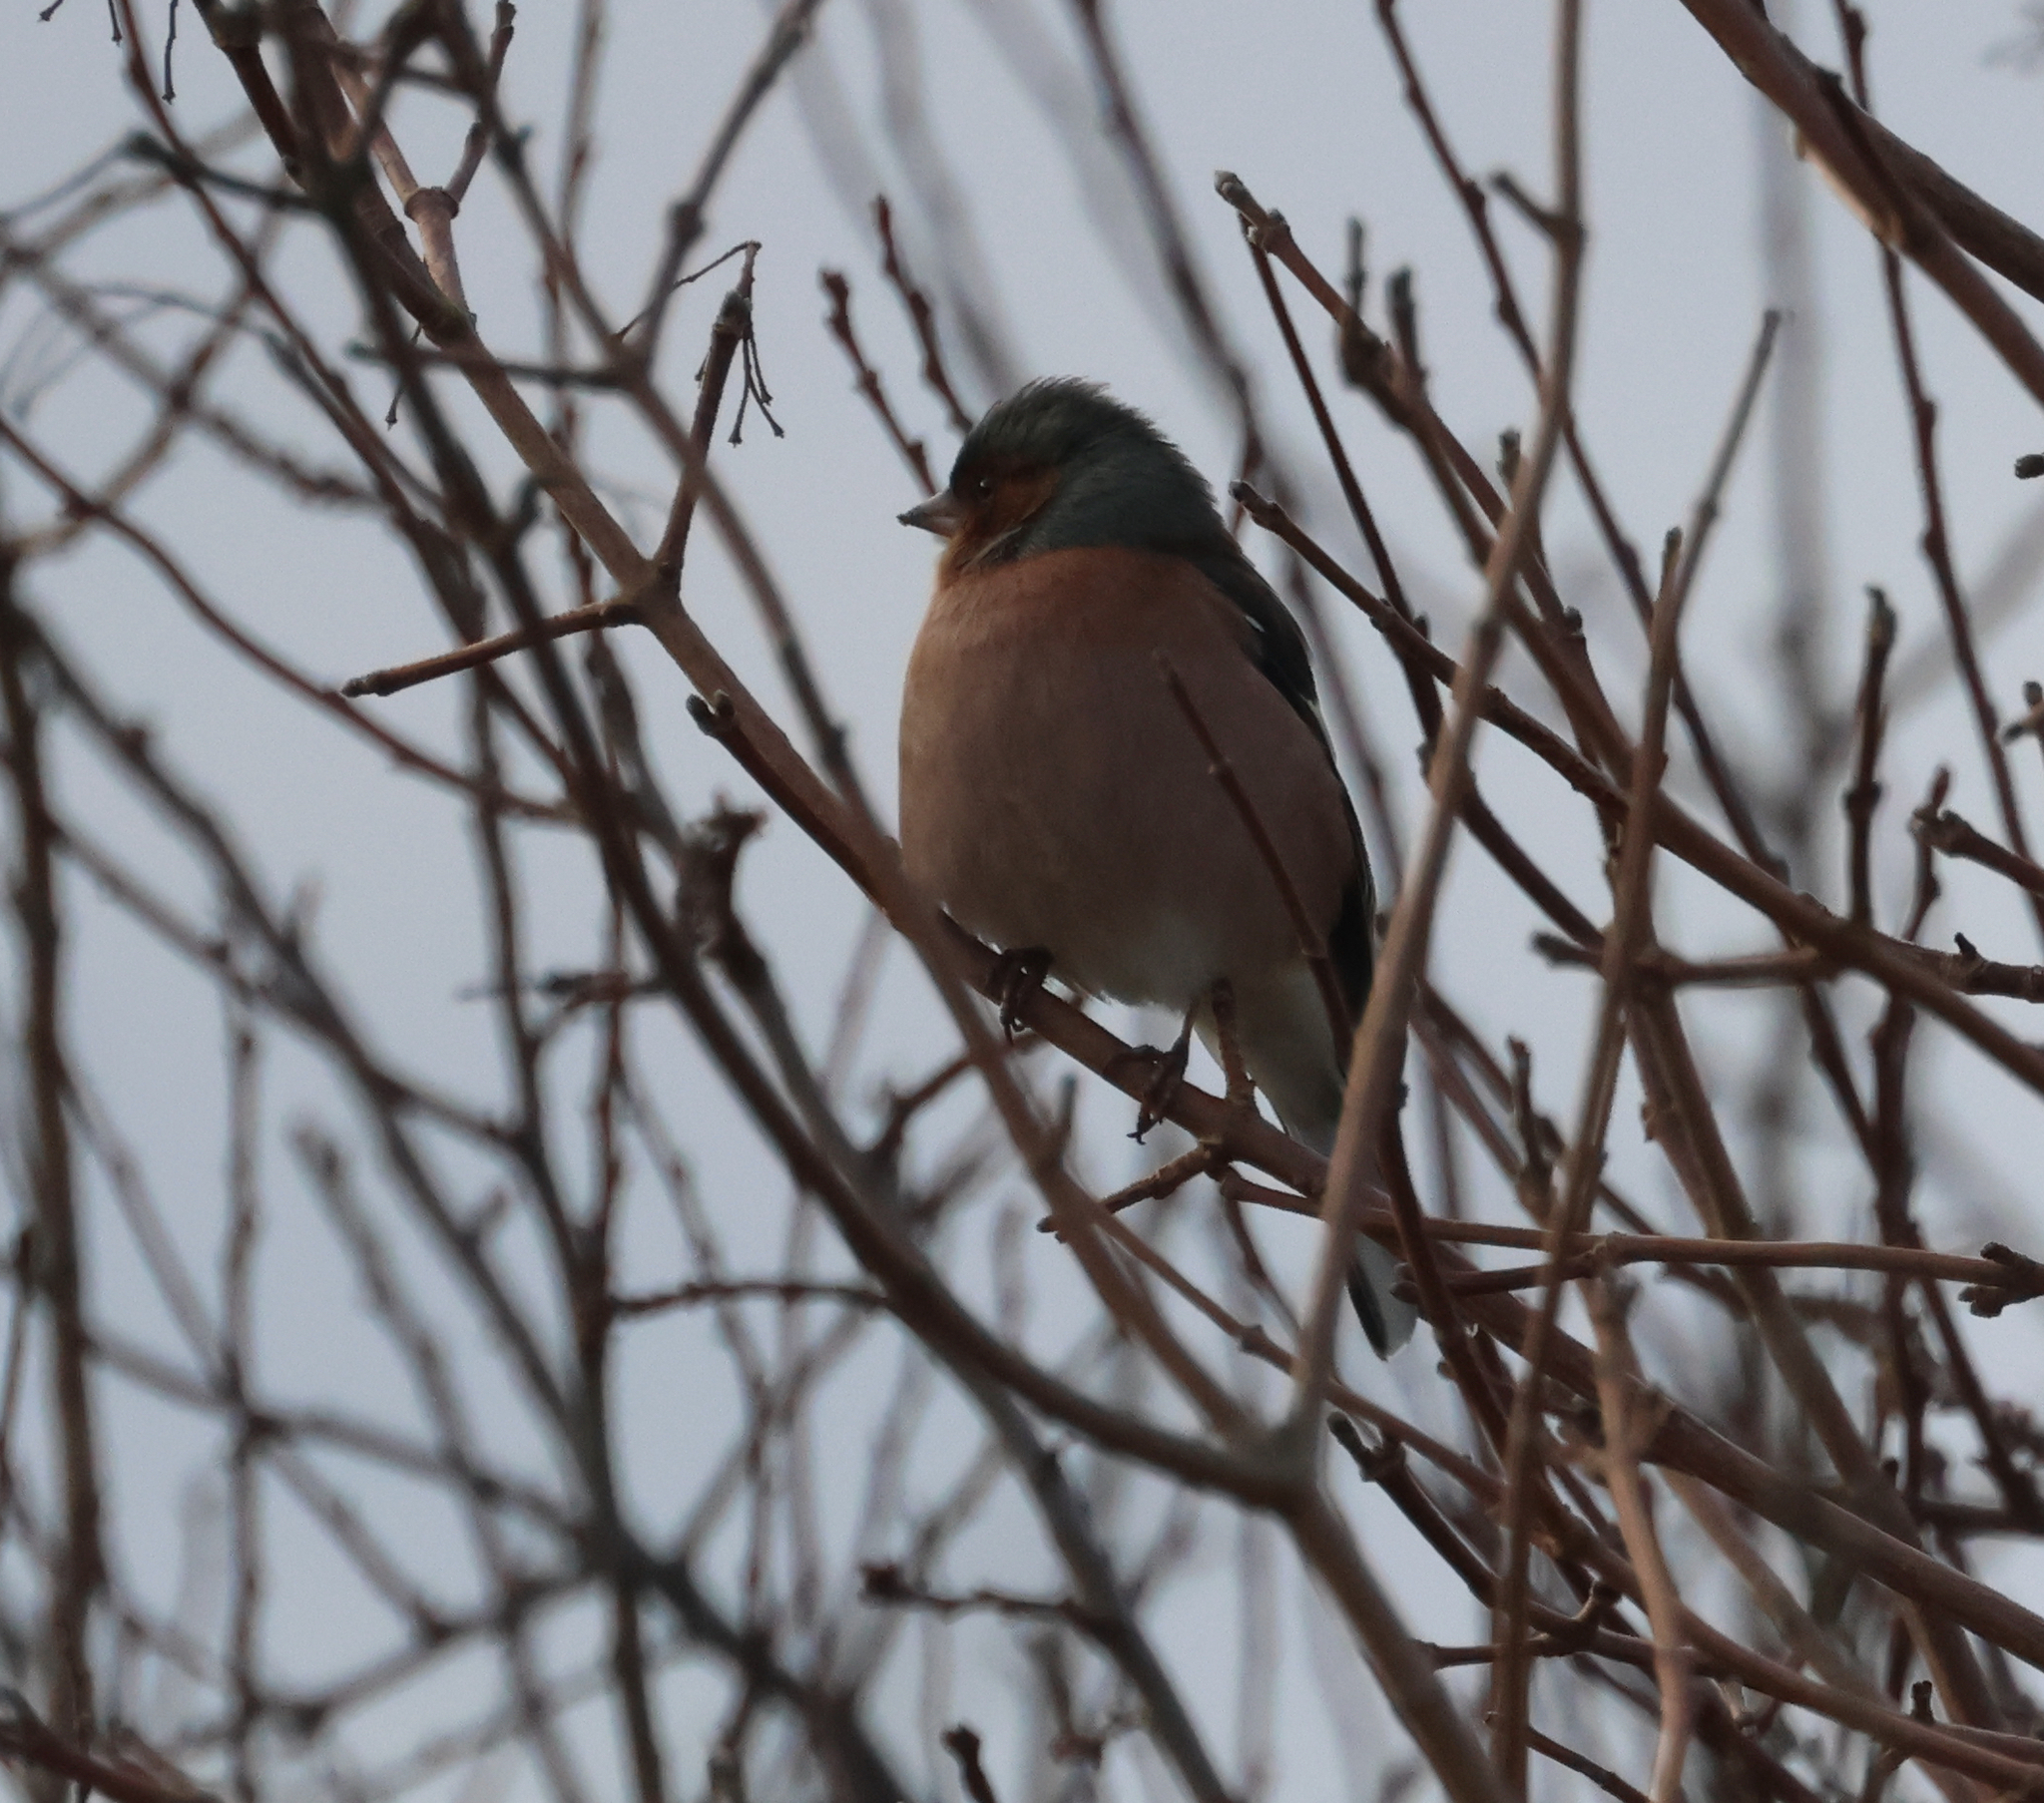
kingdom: Animalia
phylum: Chordata
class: Aves
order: Passeriformes
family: Fringillidae
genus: Fringilla
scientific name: Fringilla coelebs
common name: Common chaffinch
